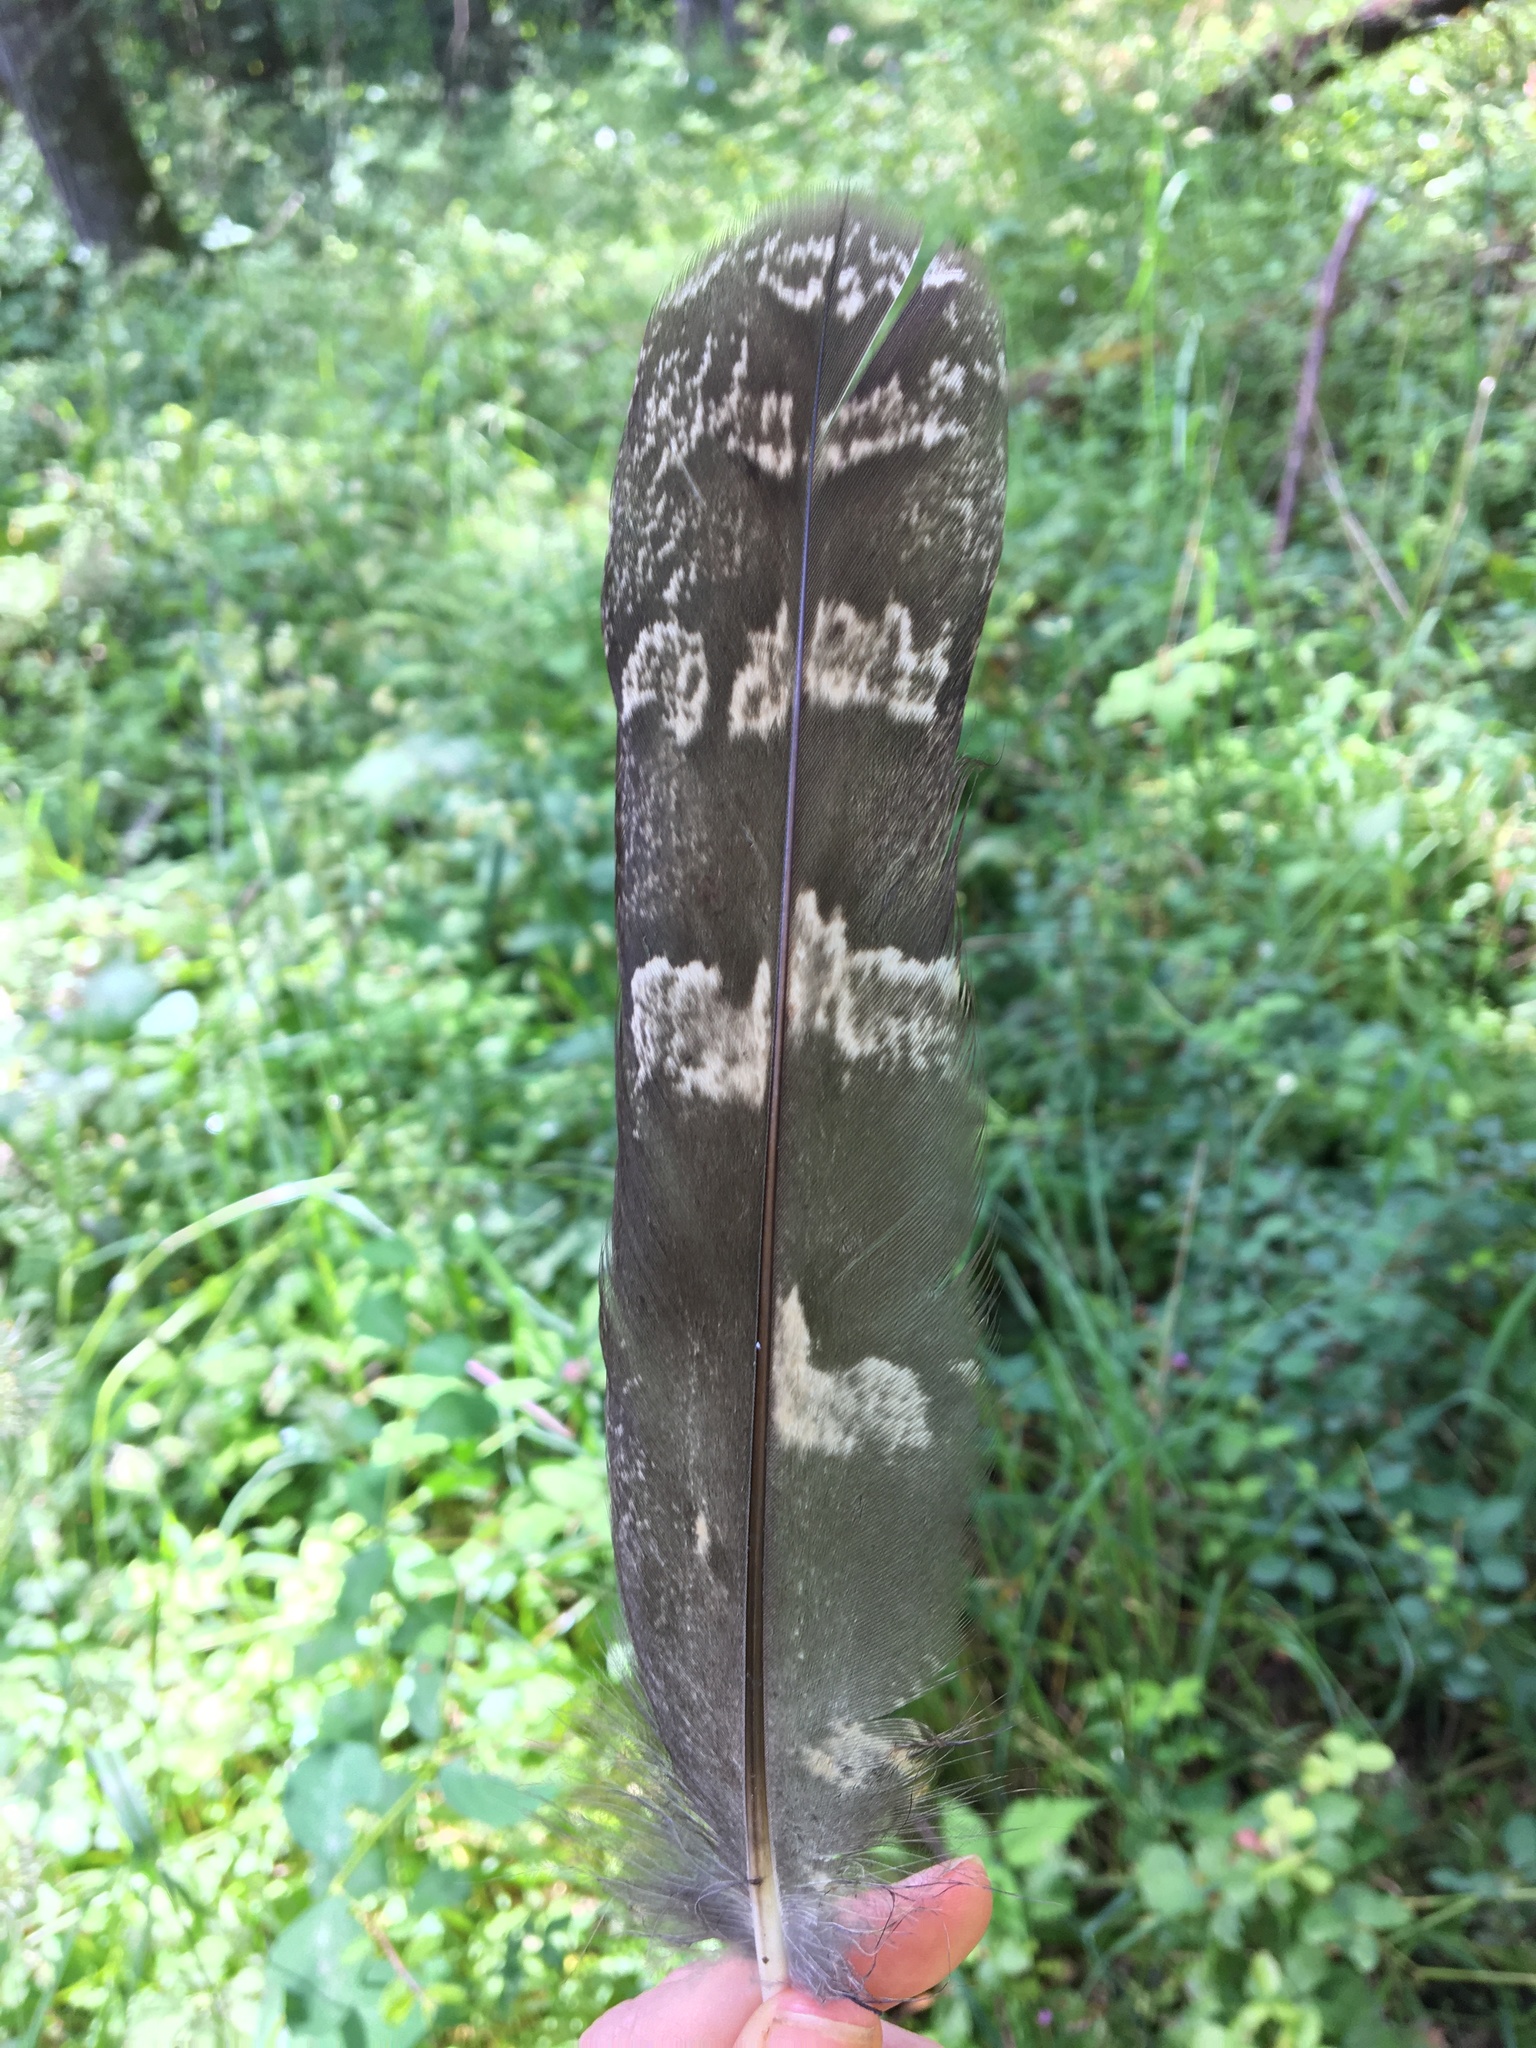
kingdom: Animalia
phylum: Chordata
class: Aves
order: Strigiformes
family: Strigidae
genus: Bubo
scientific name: Bubo virginianus
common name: Great horned owl
